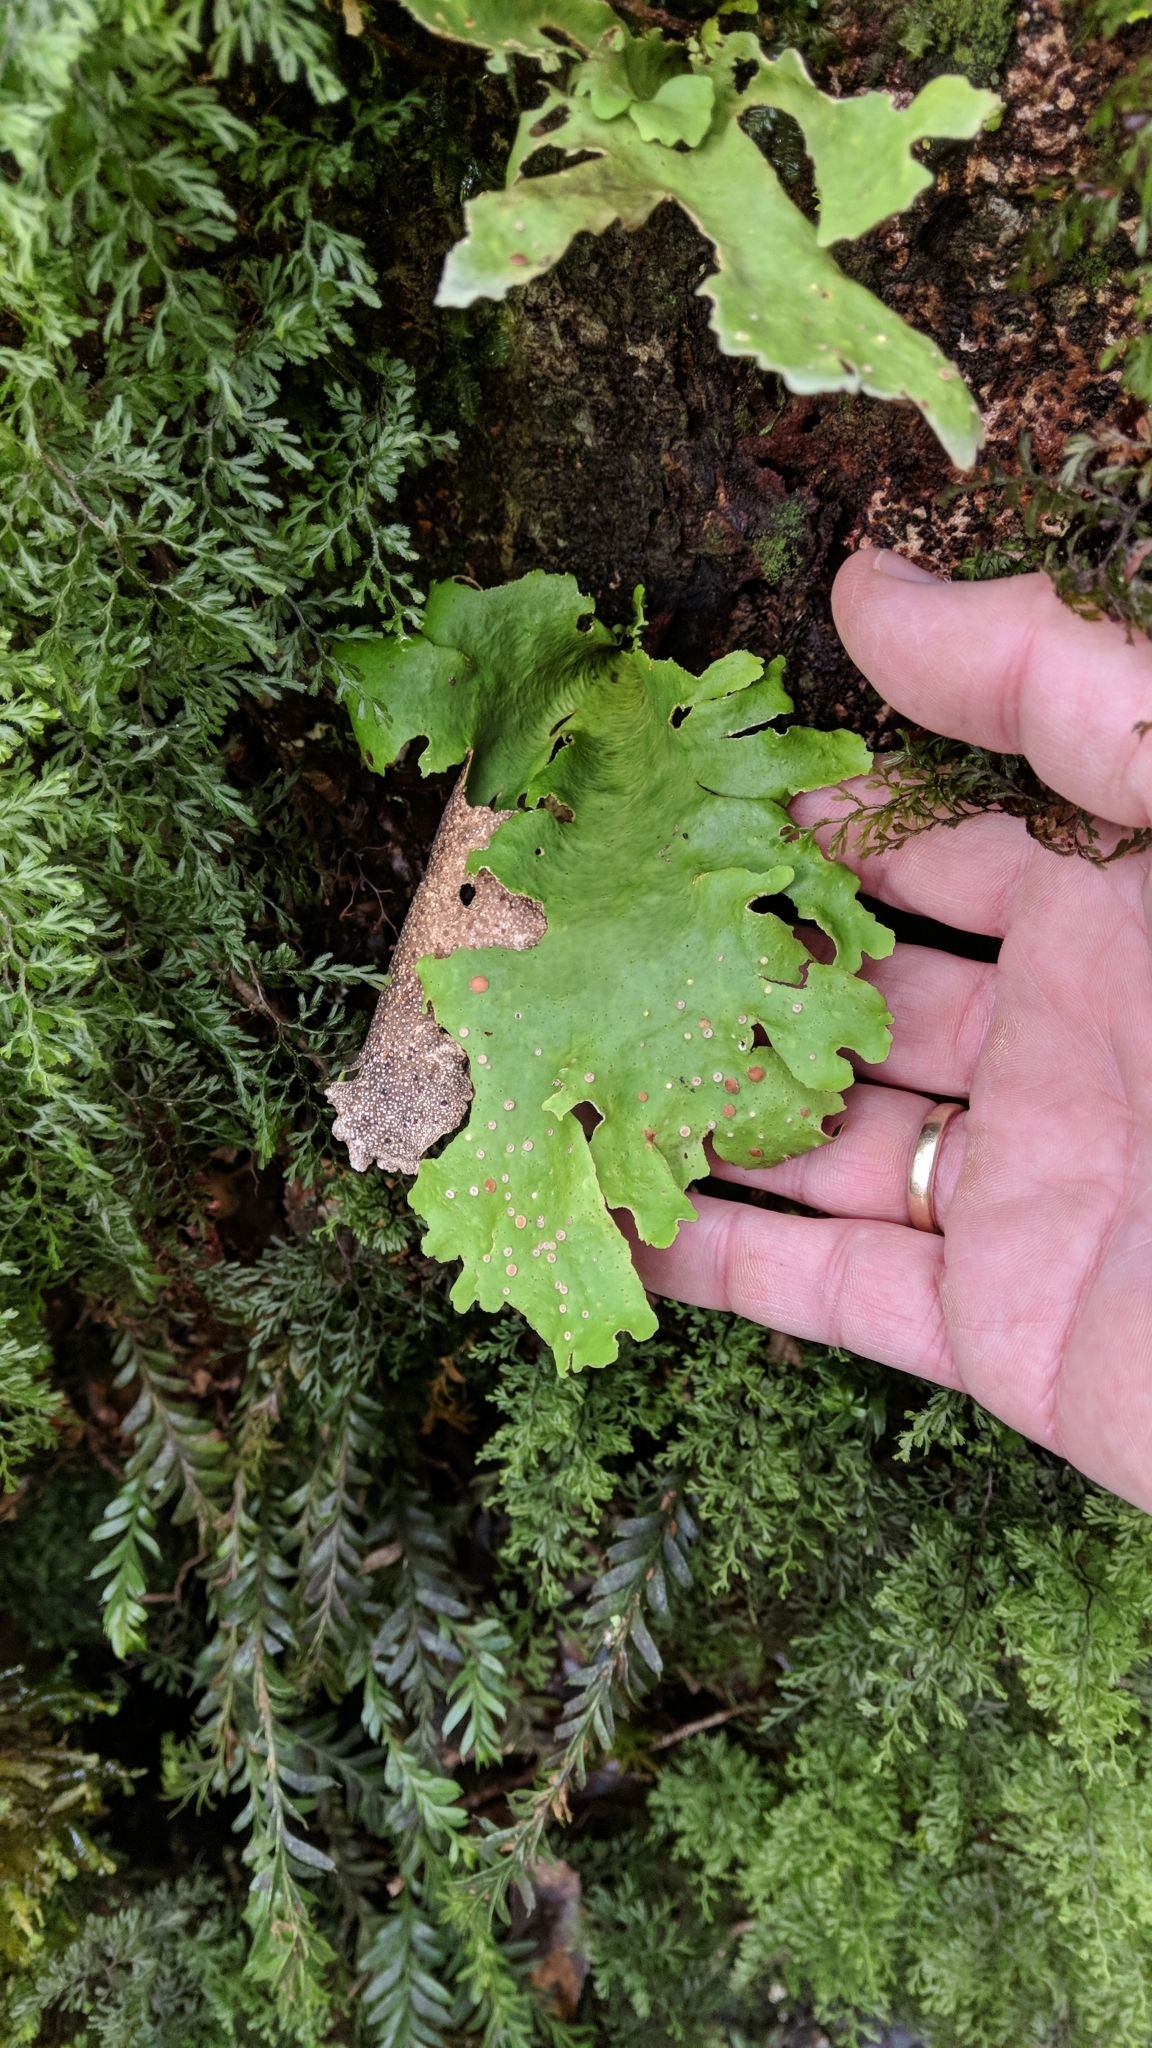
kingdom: Fungi
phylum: Ascomycota
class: Lecanoromycetes
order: Peltigerales
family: Lobariaceae
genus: Sticta
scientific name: Sticta
